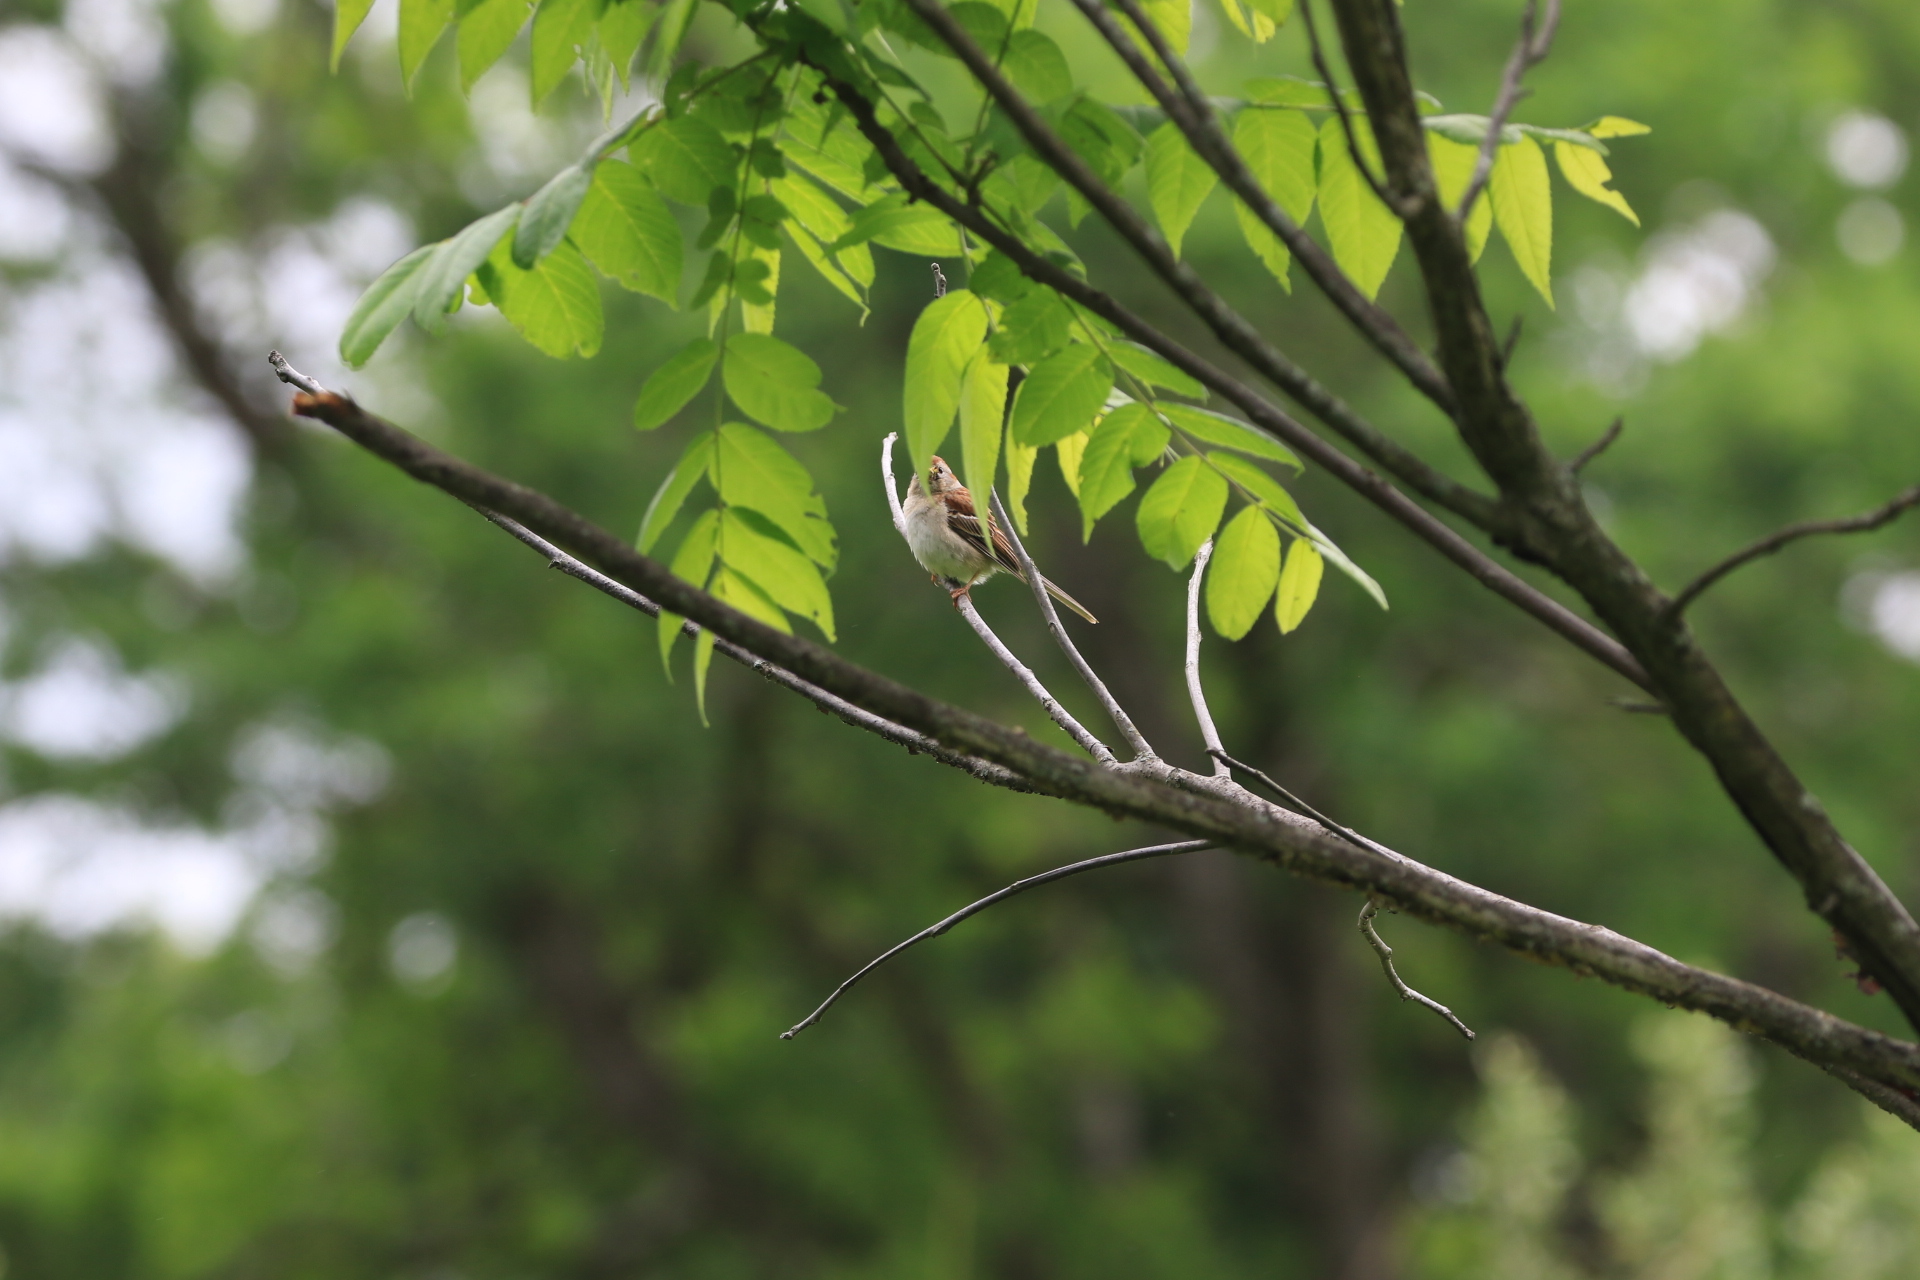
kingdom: Animalia
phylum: Chordata
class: Aves
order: Passeriformes
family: Passerellidae
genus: Spizella
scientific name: Spizella pusilla
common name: Field sparrow
